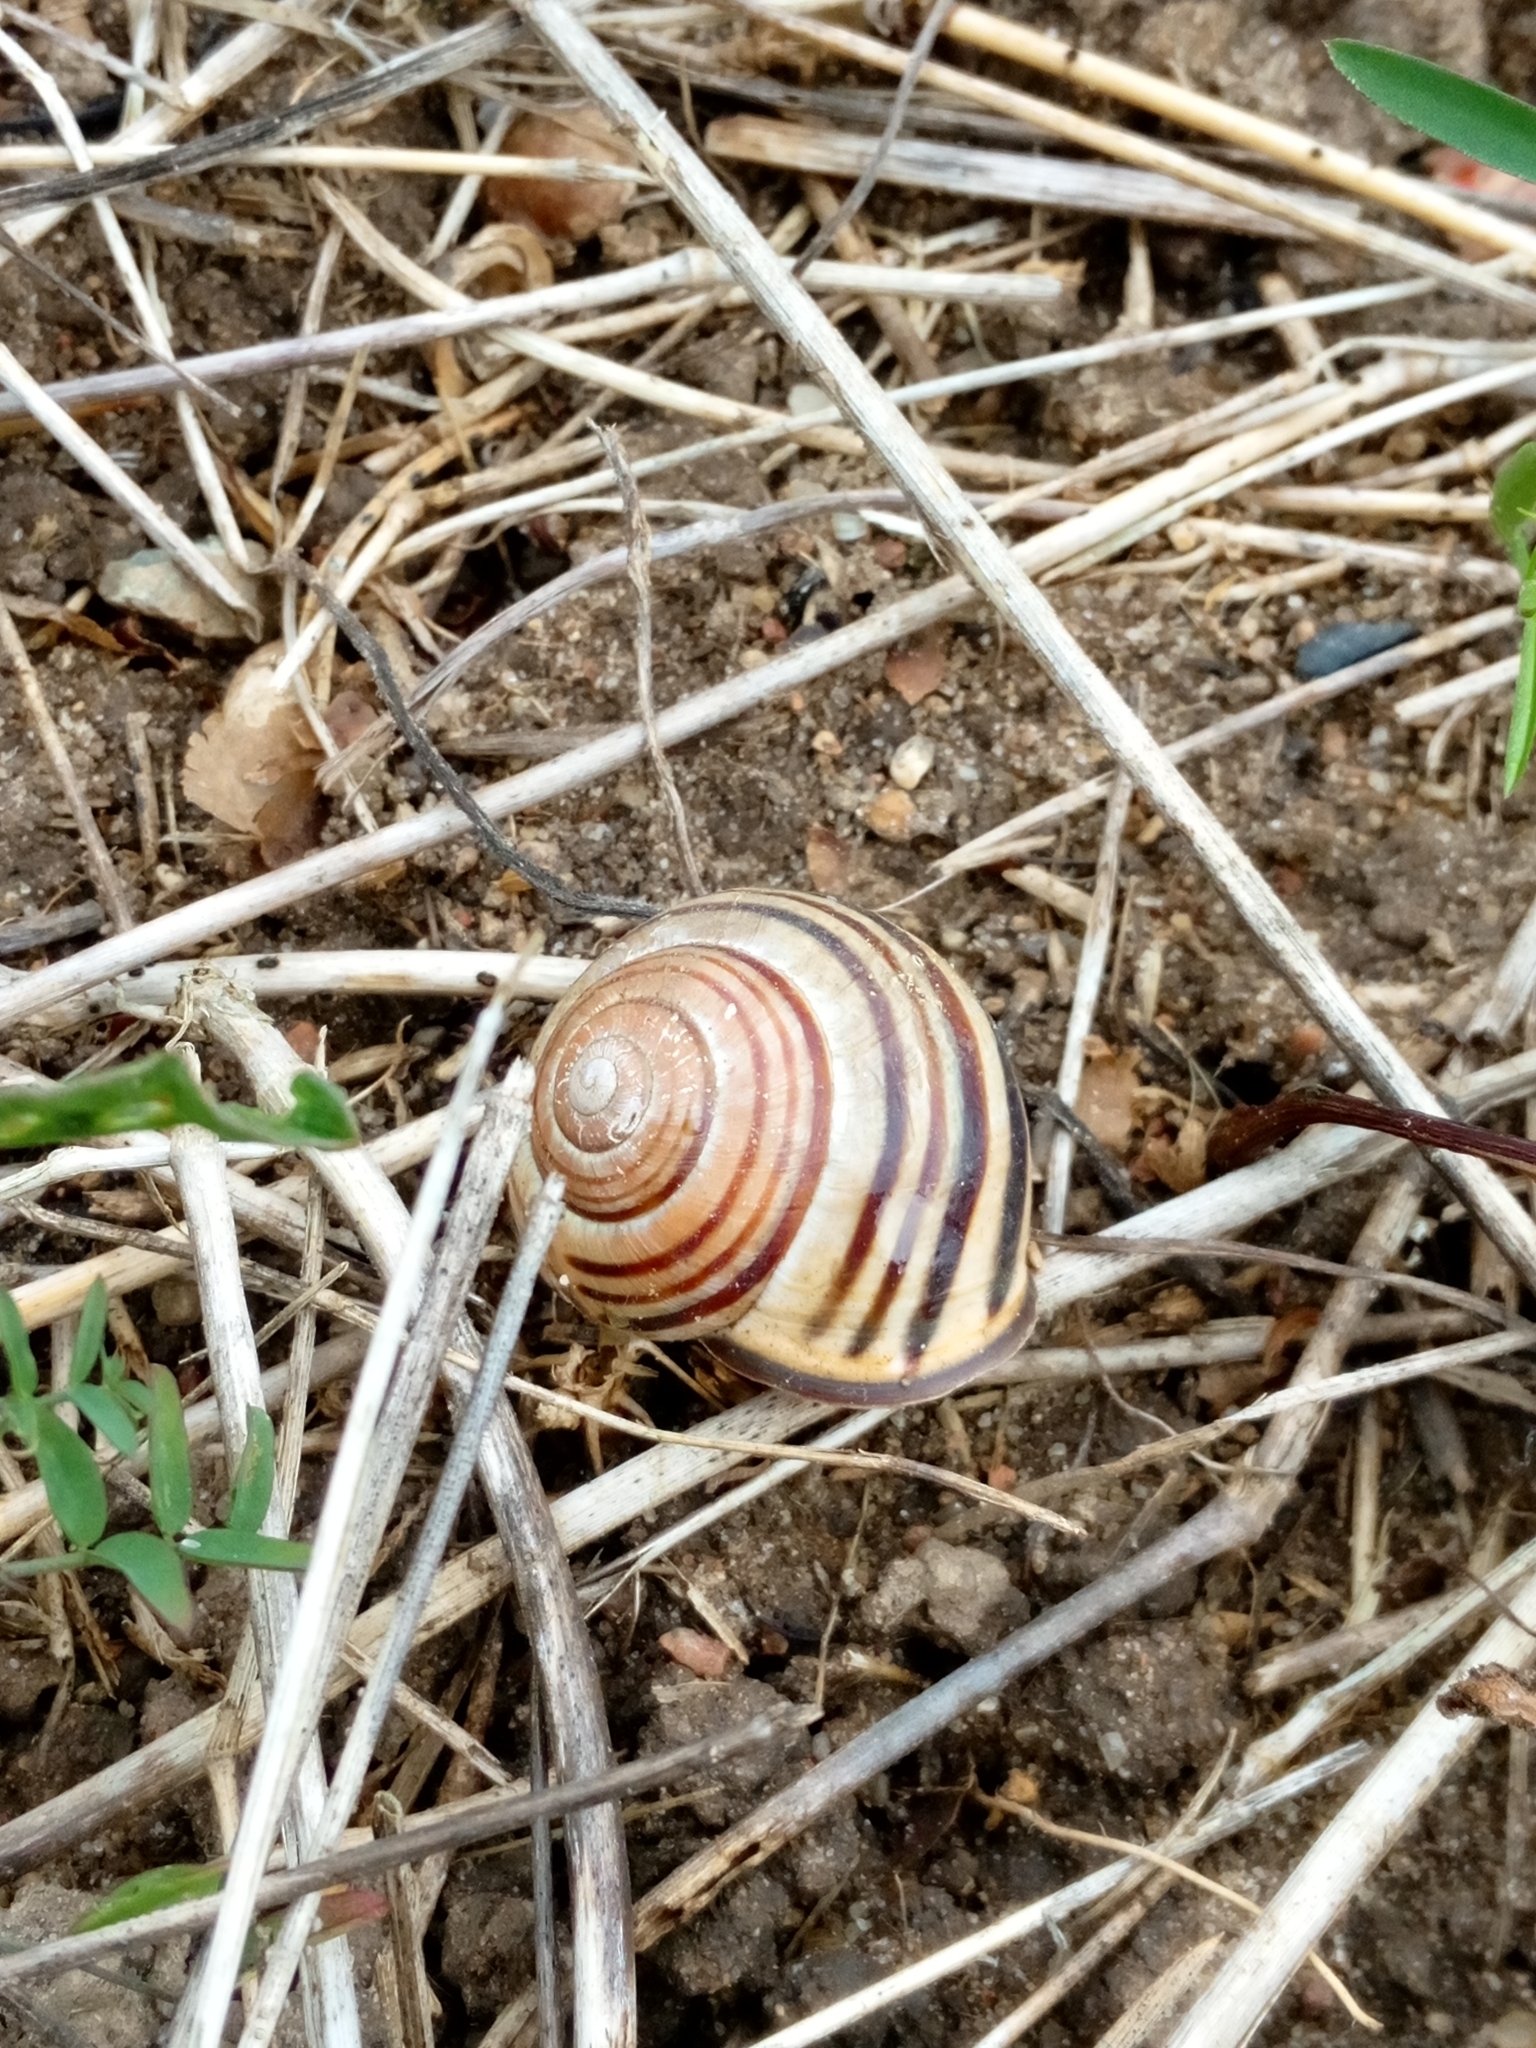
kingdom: Animalia
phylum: Mollusca
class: Gastropoda
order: Stylommatophora
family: Helicidae
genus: Cepaea
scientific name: Cepaea nemoralis
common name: Grovesnail
